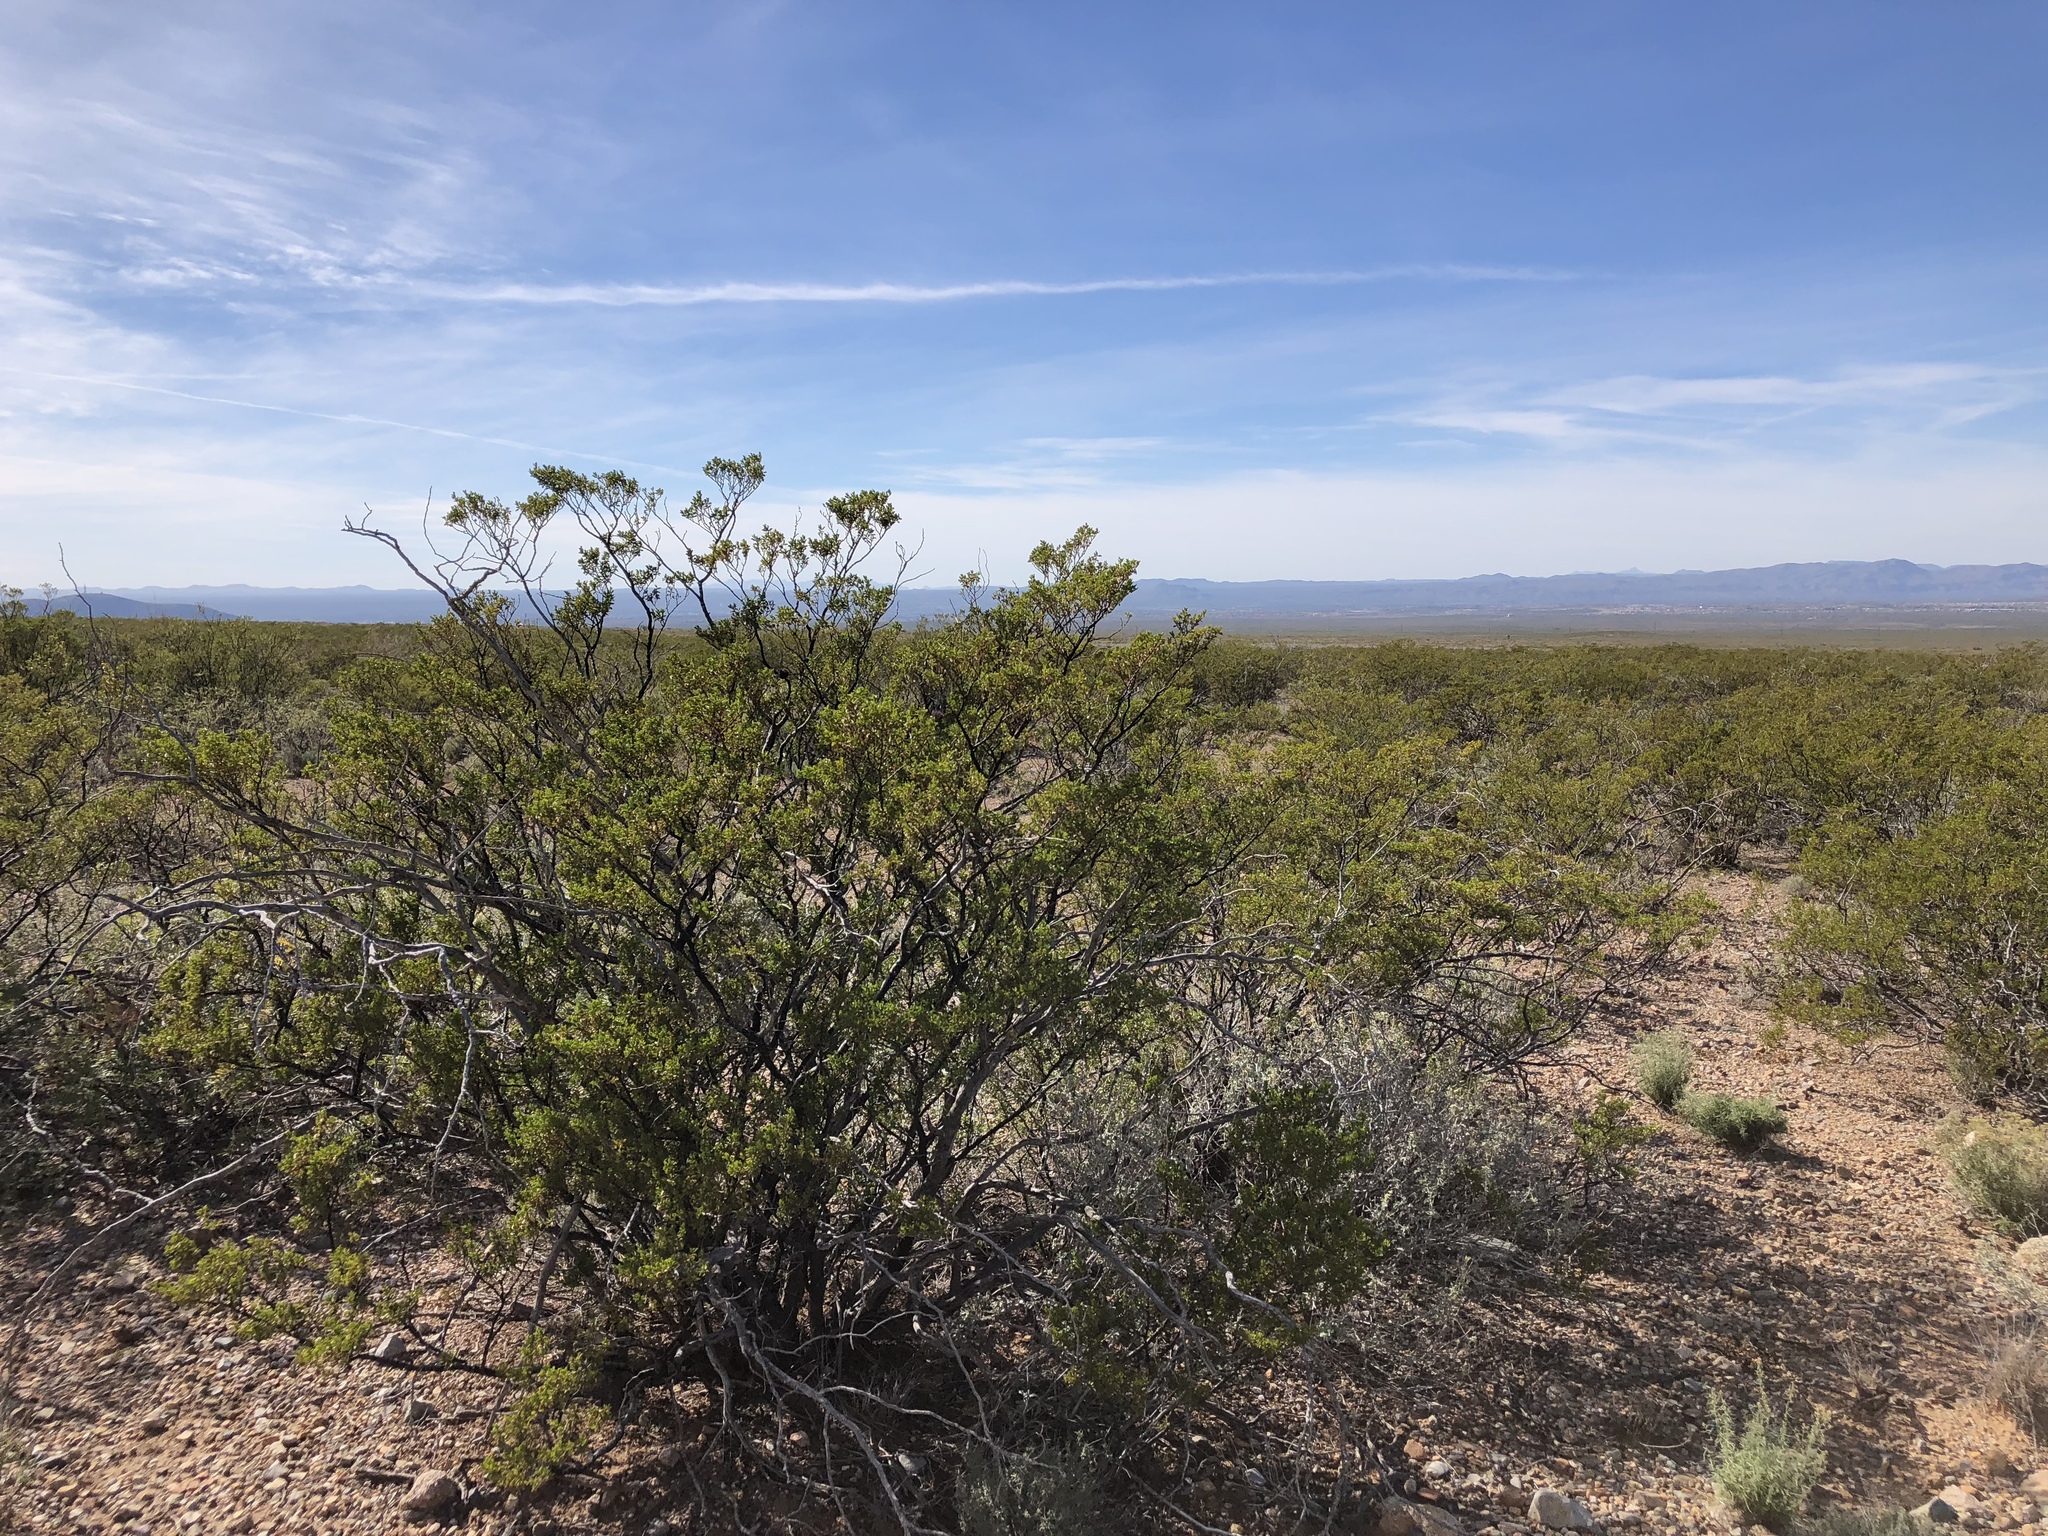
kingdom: Plantae
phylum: Tracheophyta
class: Magnoliopsida
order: Zygophyllales
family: Zygophyllaceae
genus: Larrea
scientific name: Larrea tridentata
